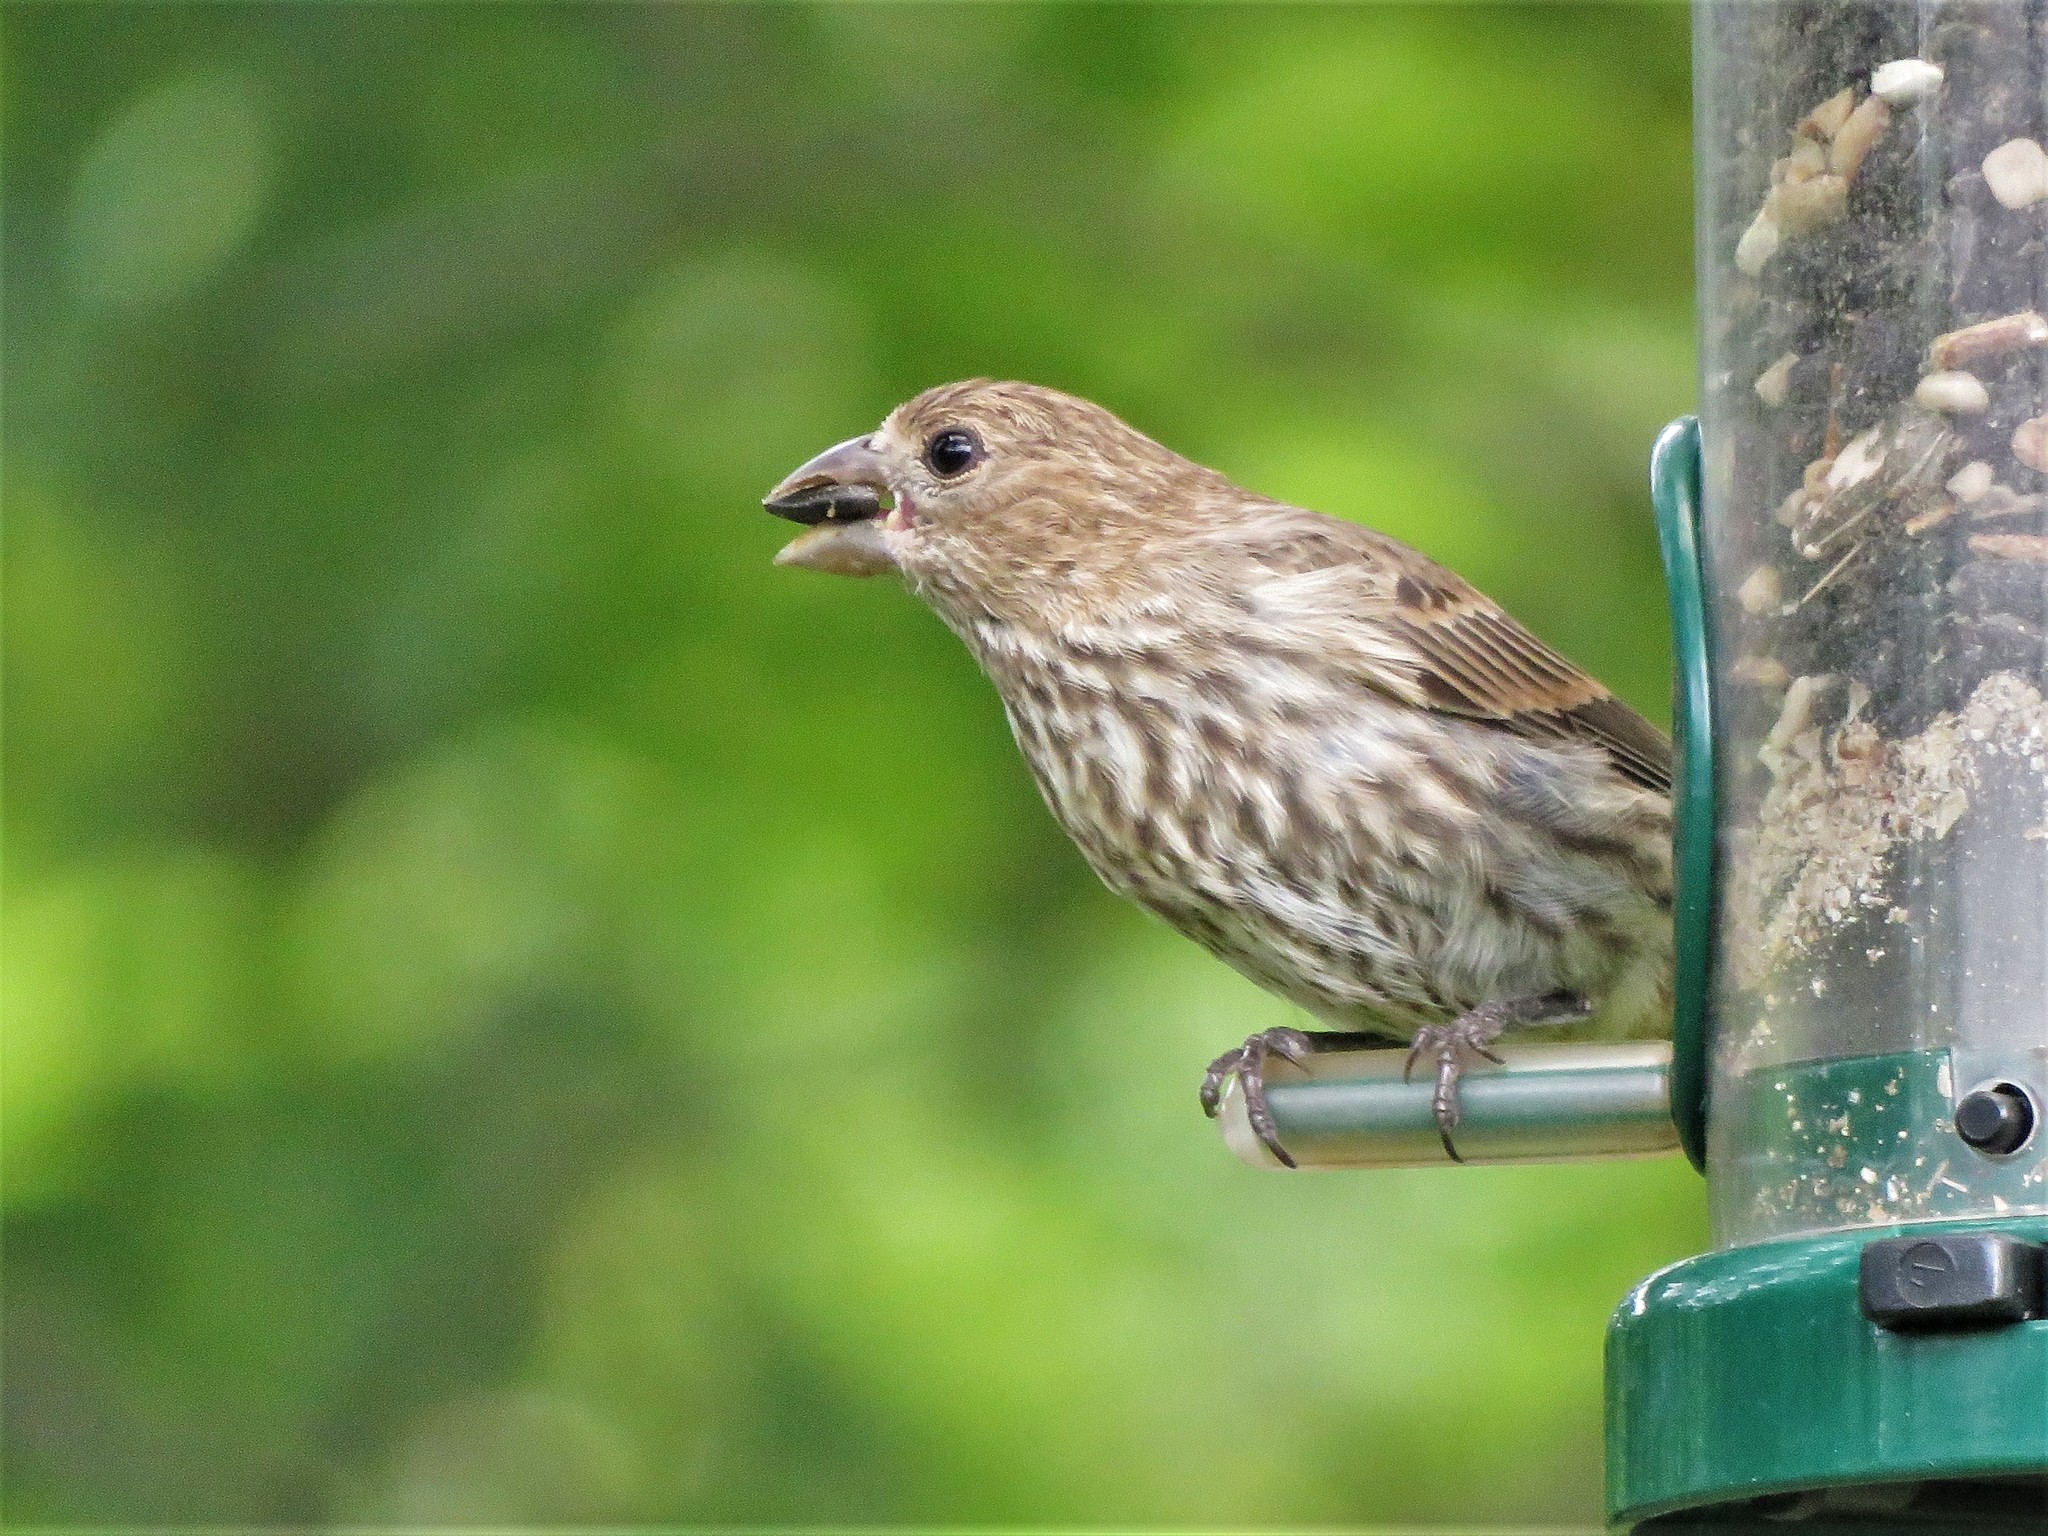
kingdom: Animalia
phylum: Chordata
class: Aves
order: Passeriformes
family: Fringillidae
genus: Haemorhous
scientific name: Haemorhous mexicanus
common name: House finch
